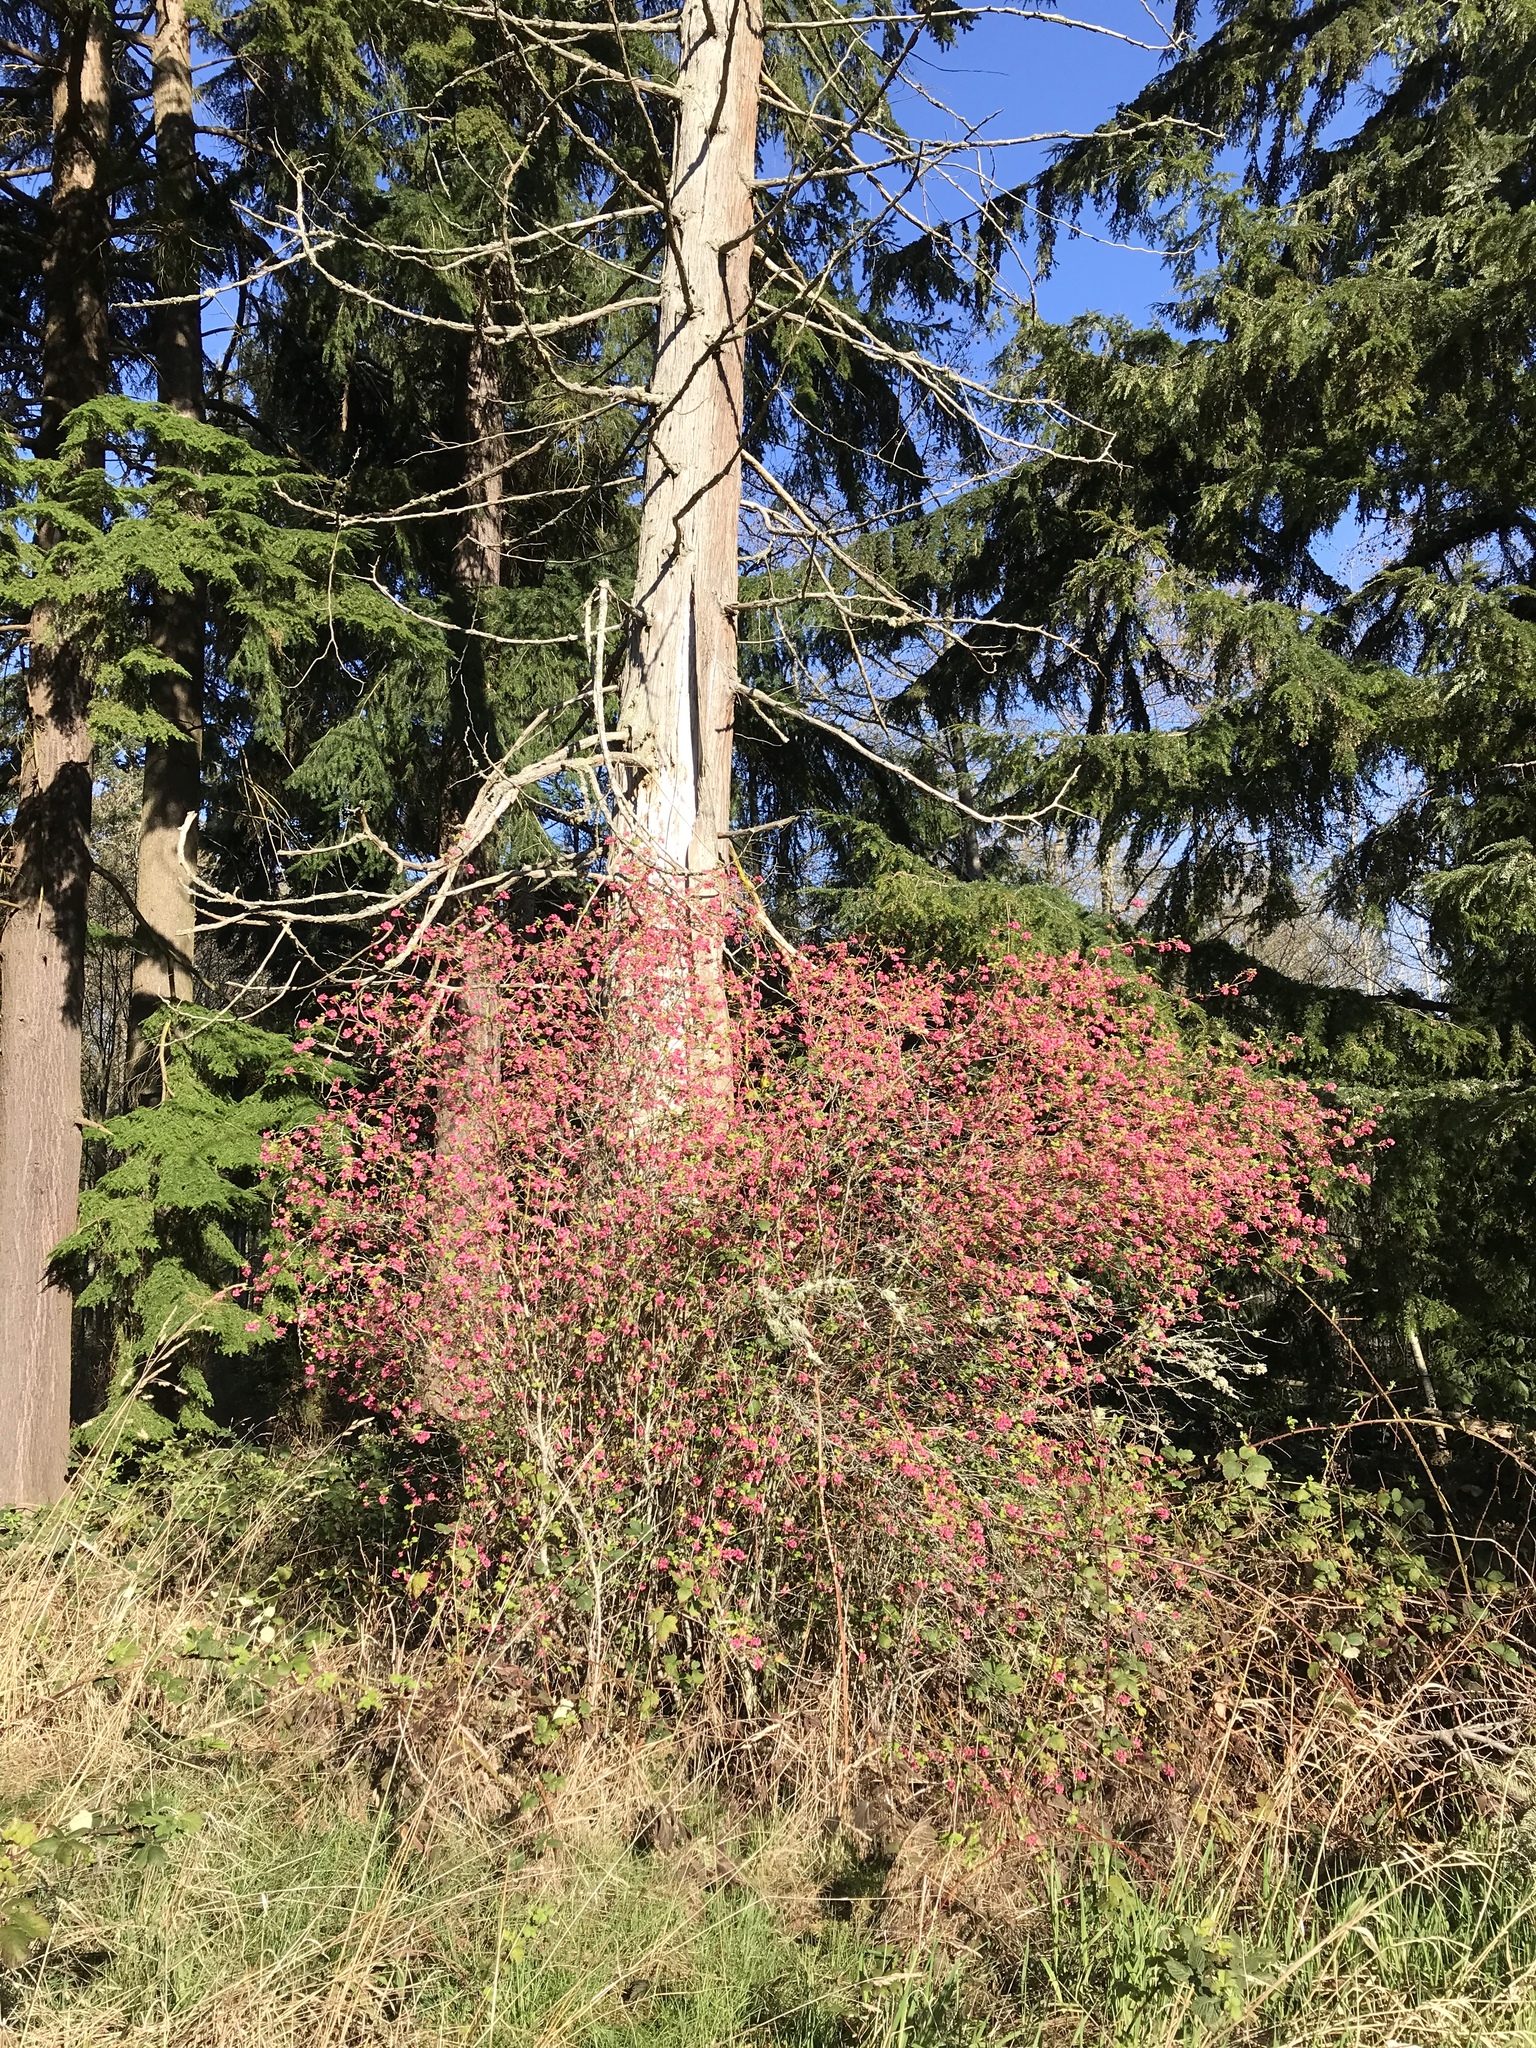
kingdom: Plantae
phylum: Tracheophyta
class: Magnoliopsida
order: Saxifragales
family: Grossulariaceae
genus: Ribes
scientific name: Ribes sanguineum
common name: Flowering currant
